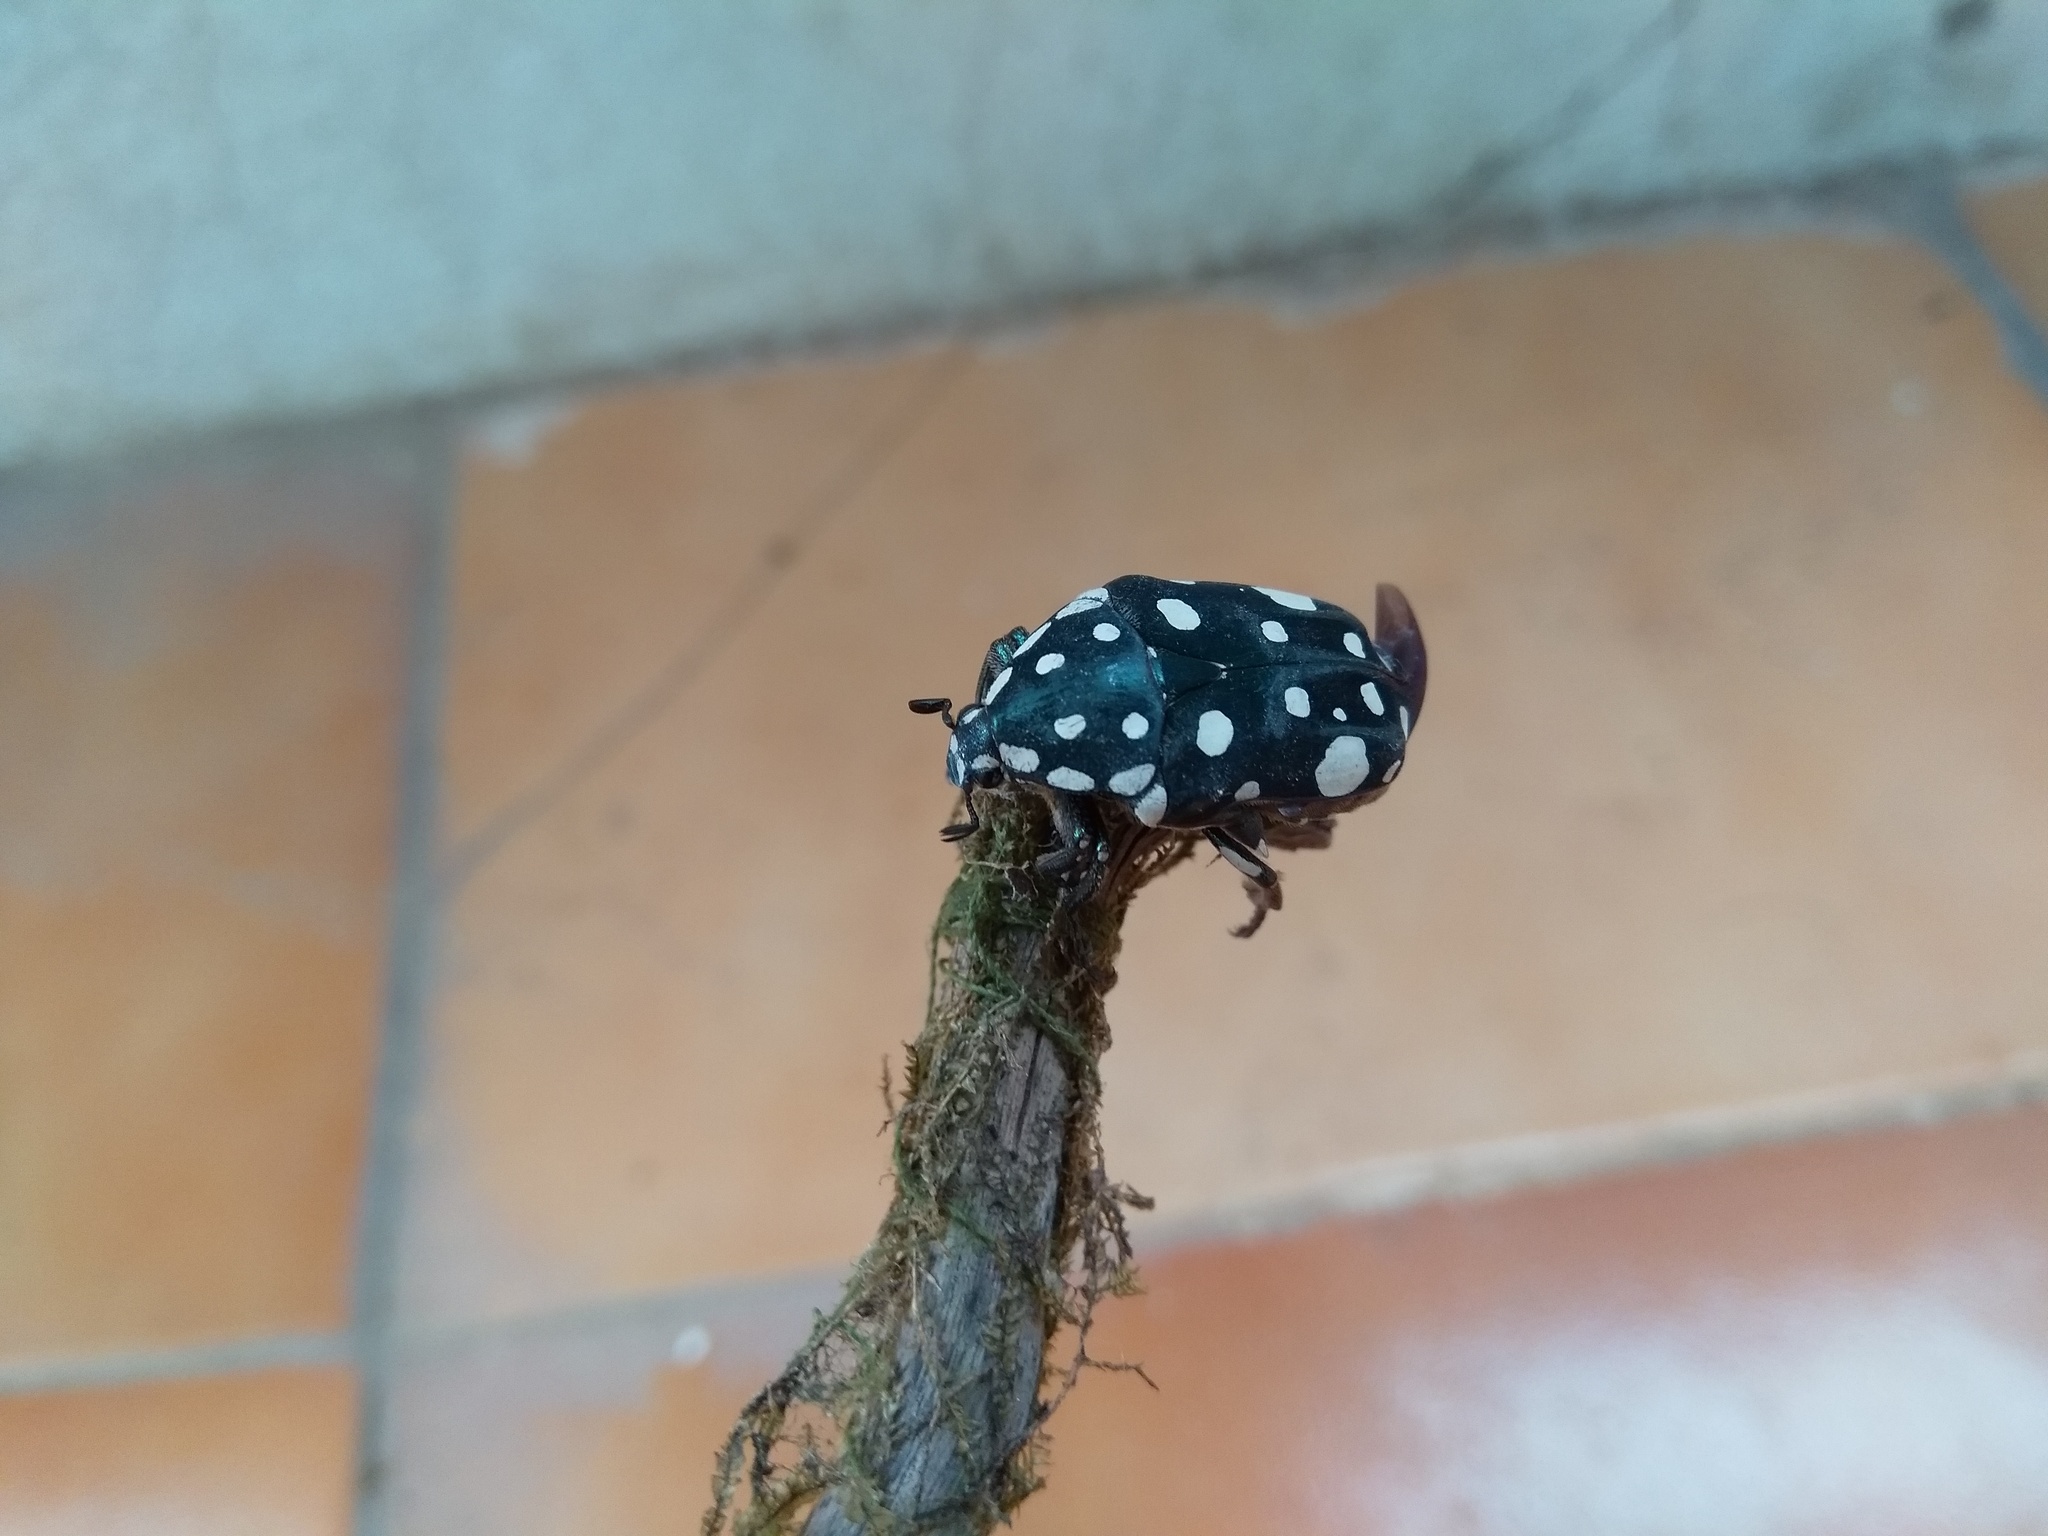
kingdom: Animalia
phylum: Arthropoda
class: Insecta
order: Coleoptera
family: Scarabaeidae
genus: Protaetia
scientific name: Protaetia wiebesi
